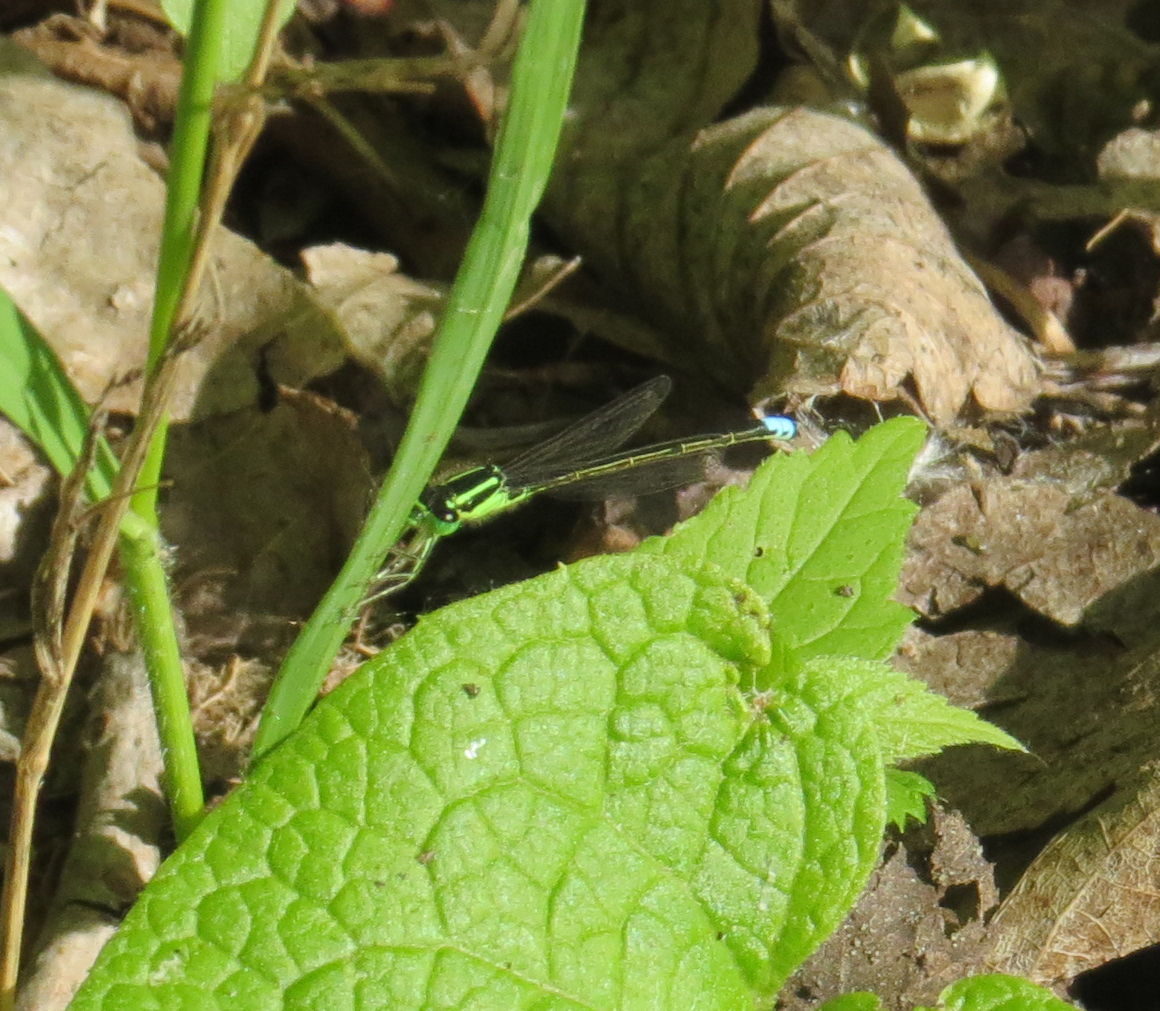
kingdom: Animalia
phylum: Arthropoda
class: Insecta
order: Odonata
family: Coenagrionidae
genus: Ischnura
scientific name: Ischnura verticalis
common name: Eastern forktail
